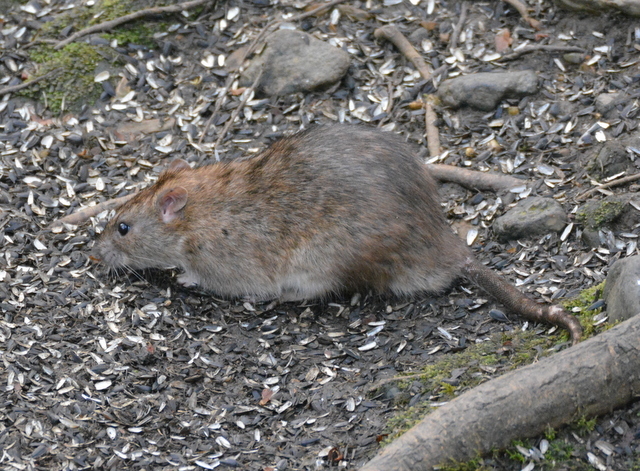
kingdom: Animalia
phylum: Chordata
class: Mammalia
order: Rodentia
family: Muridae
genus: Rattus
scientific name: Rattus norvegicus
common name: Brown rat
